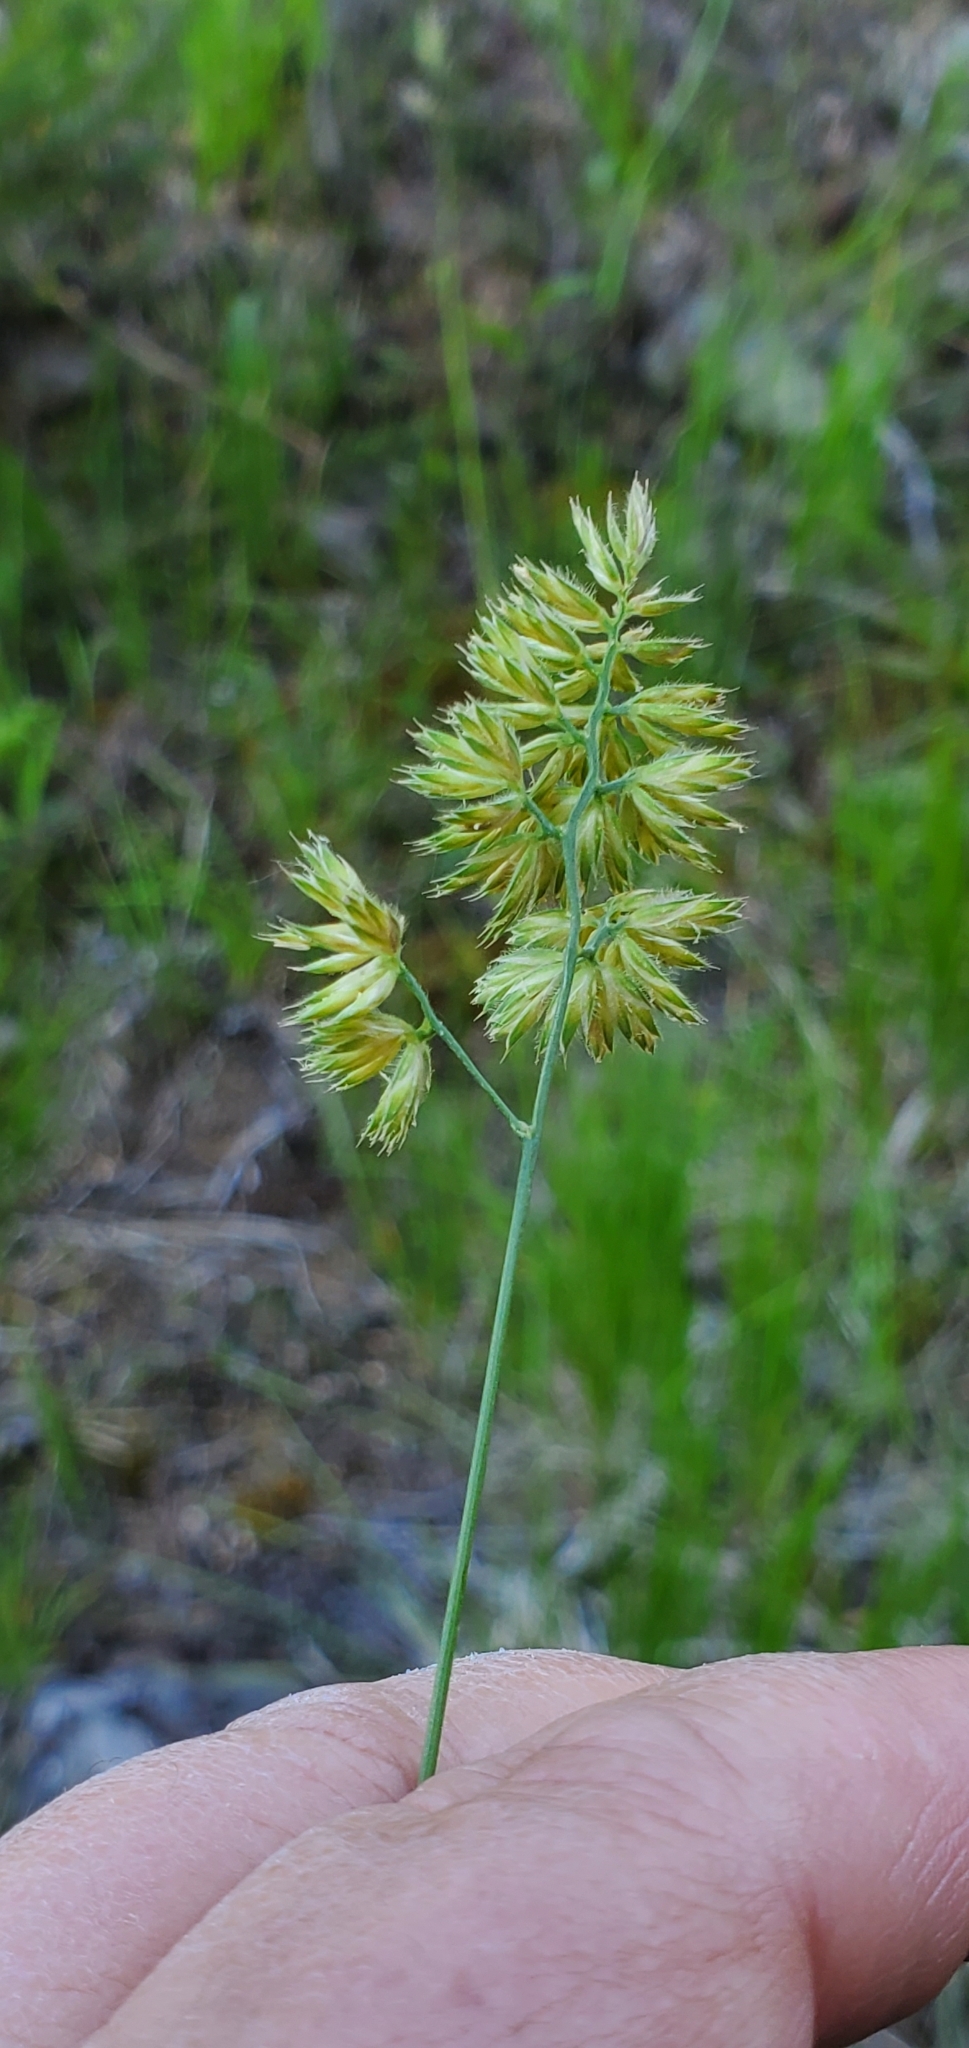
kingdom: Plantae
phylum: Tracheophyta
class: Liliopsida
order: Poales
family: Poaceae
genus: Dactylis
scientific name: Dactylis glomerata
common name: Orchardgrass
